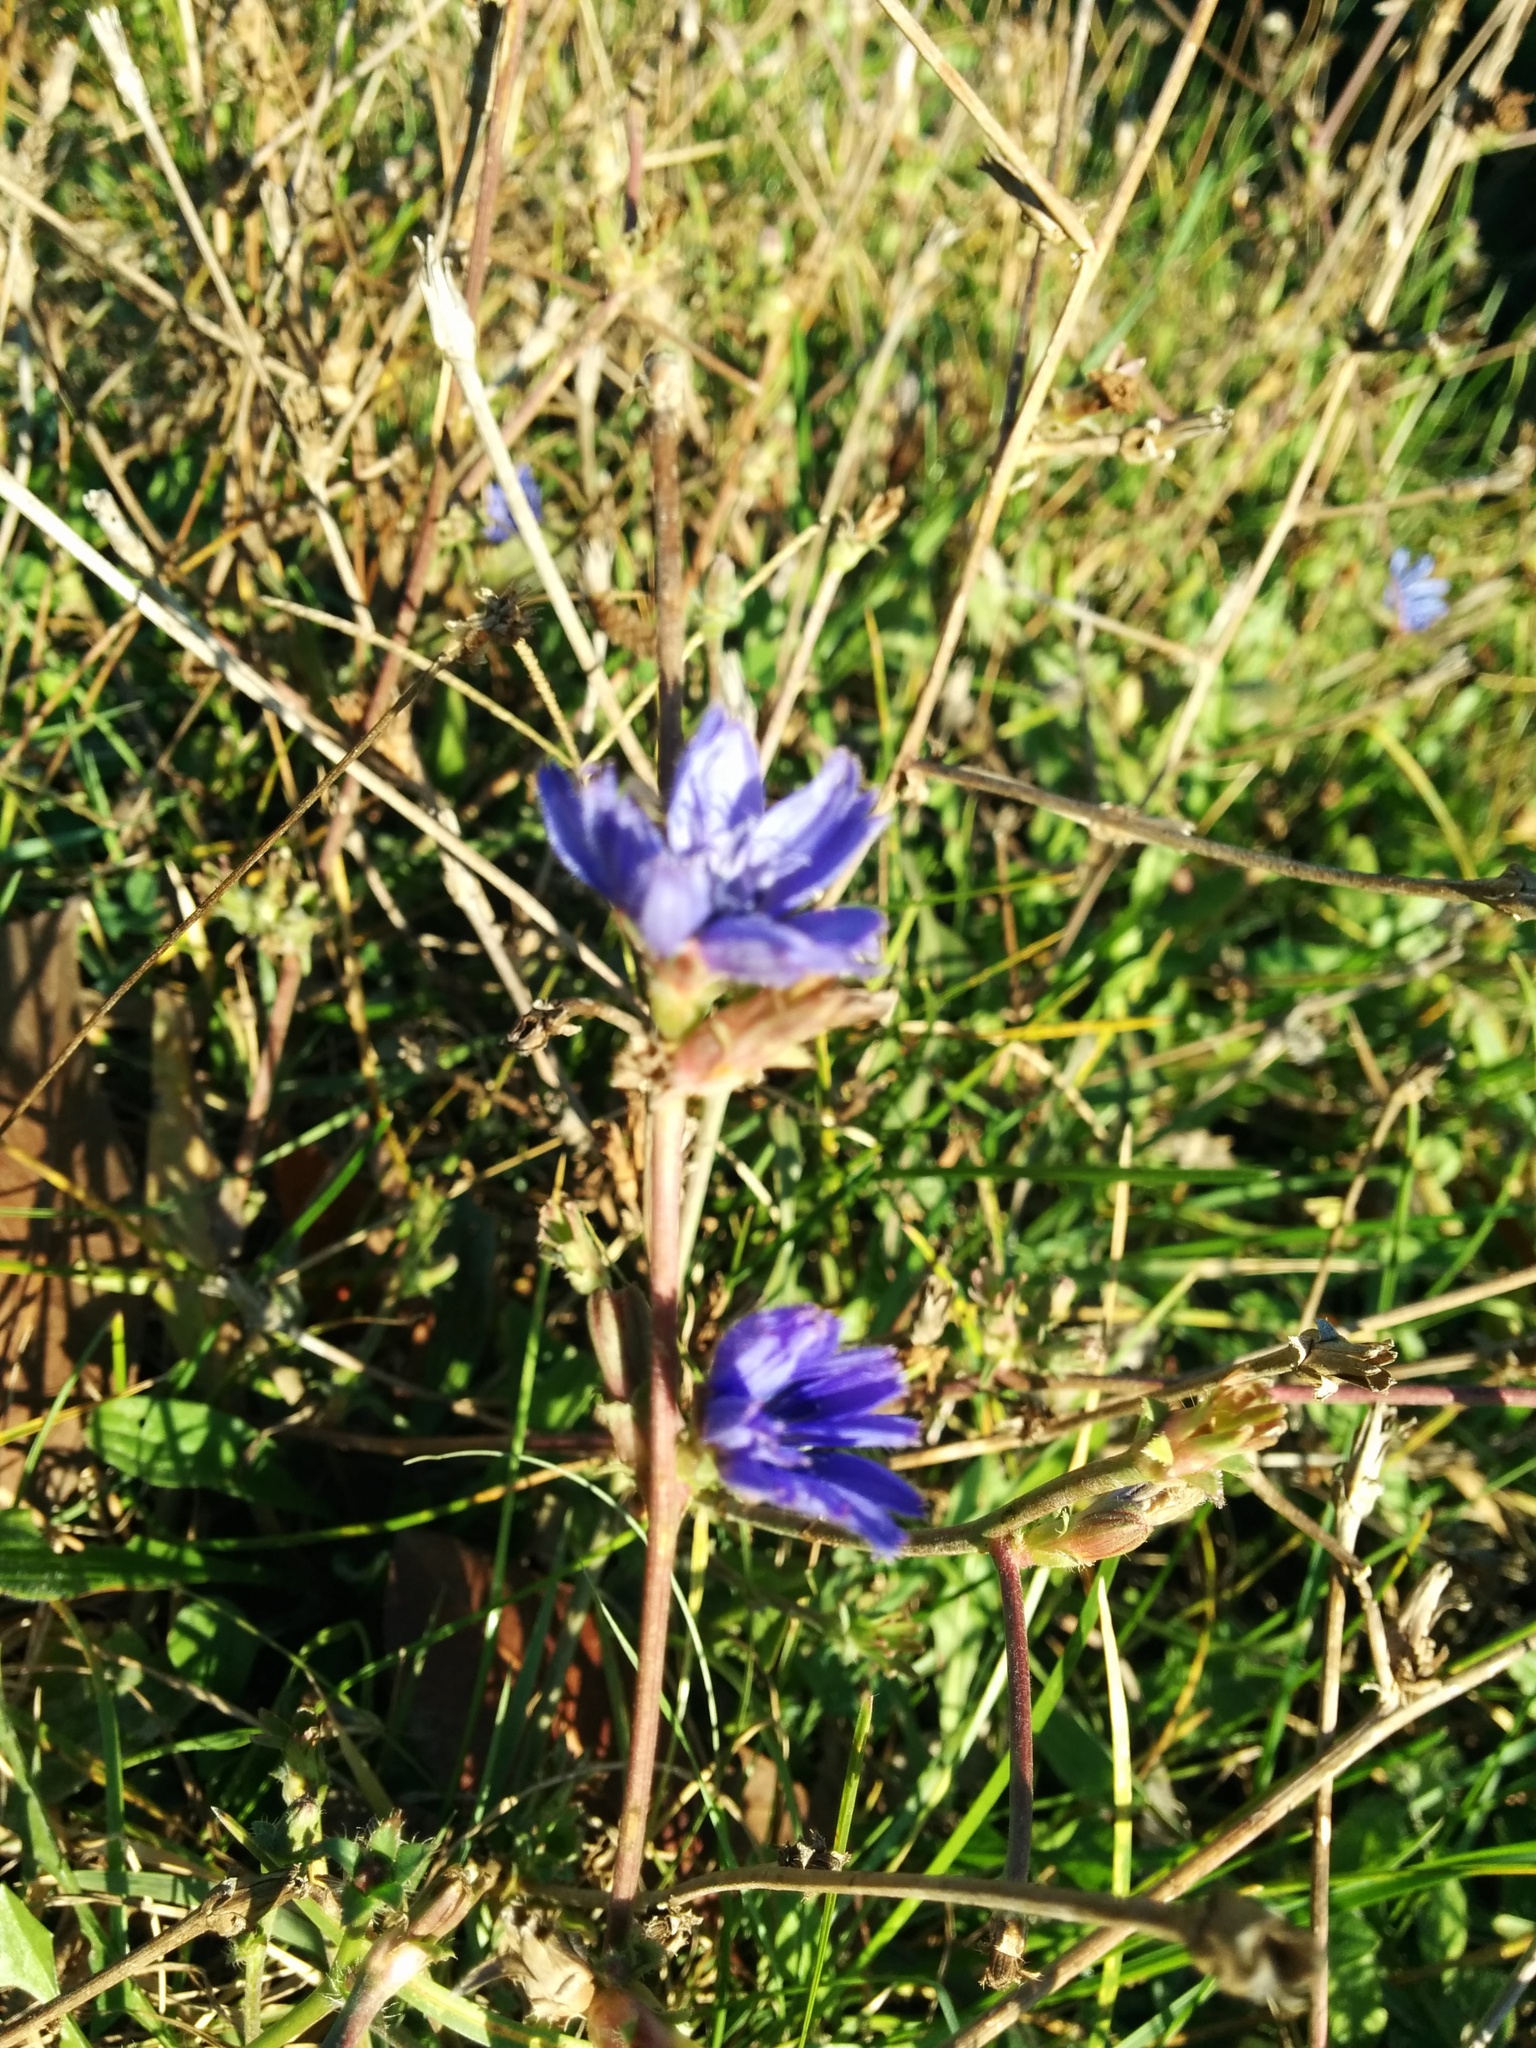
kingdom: Plantae
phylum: Tracheophyta
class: Magnoliopsida
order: Asterales
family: Asteraceae
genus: Cichorium
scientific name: Cichorium intybus
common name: Chicory
